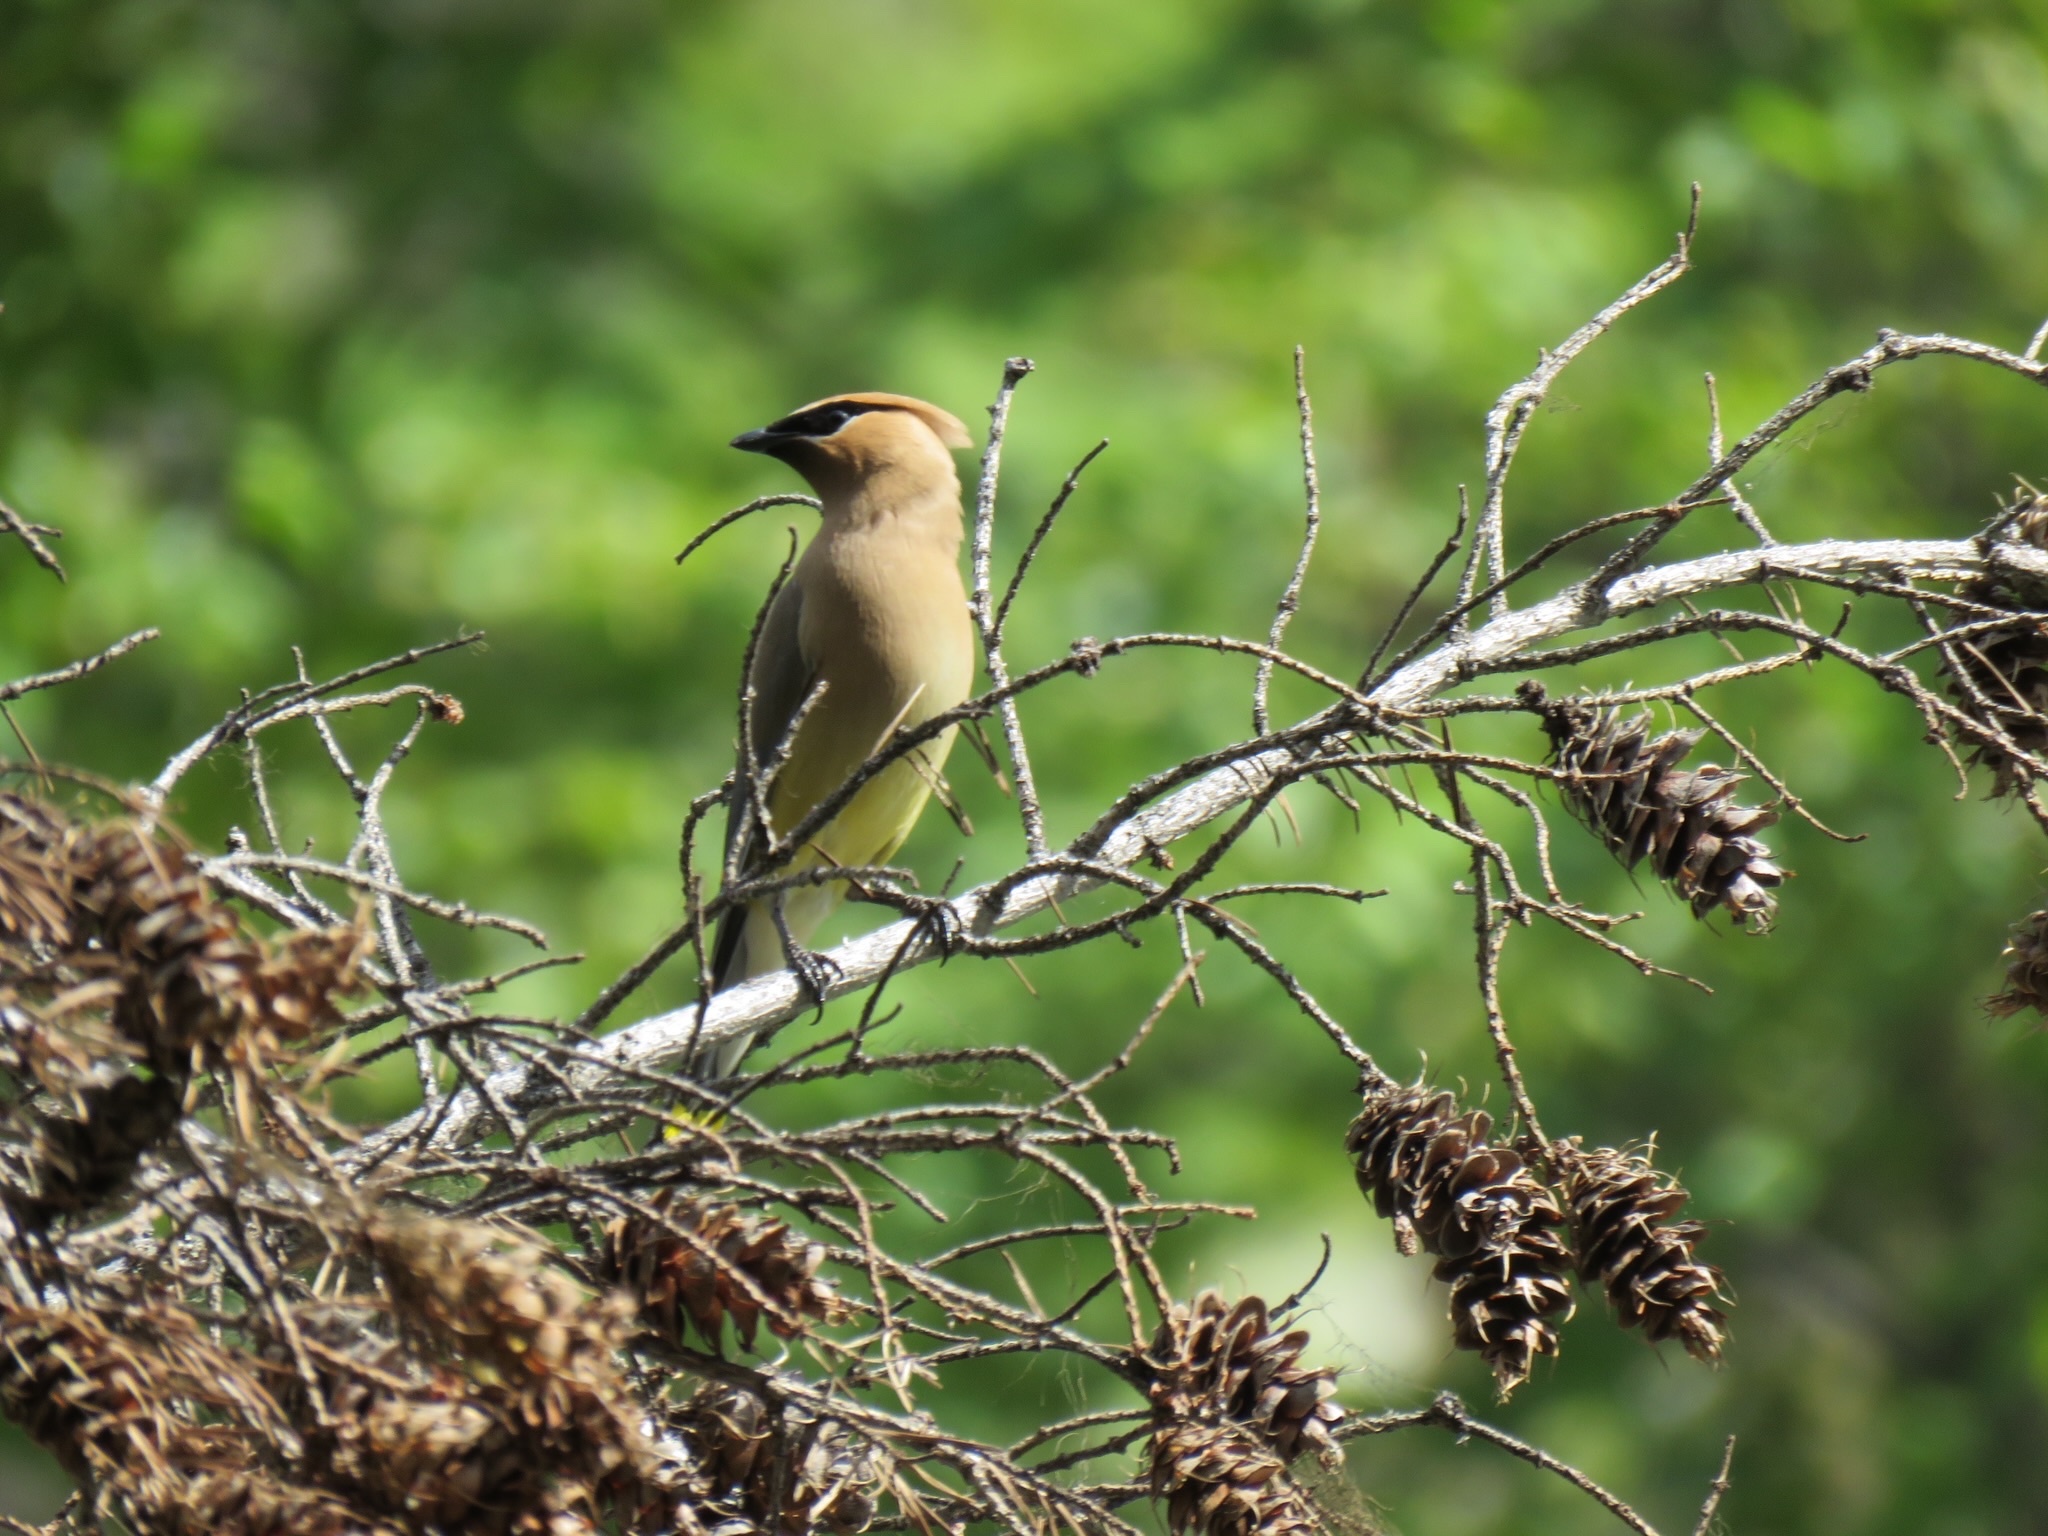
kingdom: Animalia
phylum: Chordata
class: Aves
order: Passeriformes
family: Bombycillidae
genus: Bombycilla
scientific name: Bombycilla cedrorum
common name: Cedar waxwing
